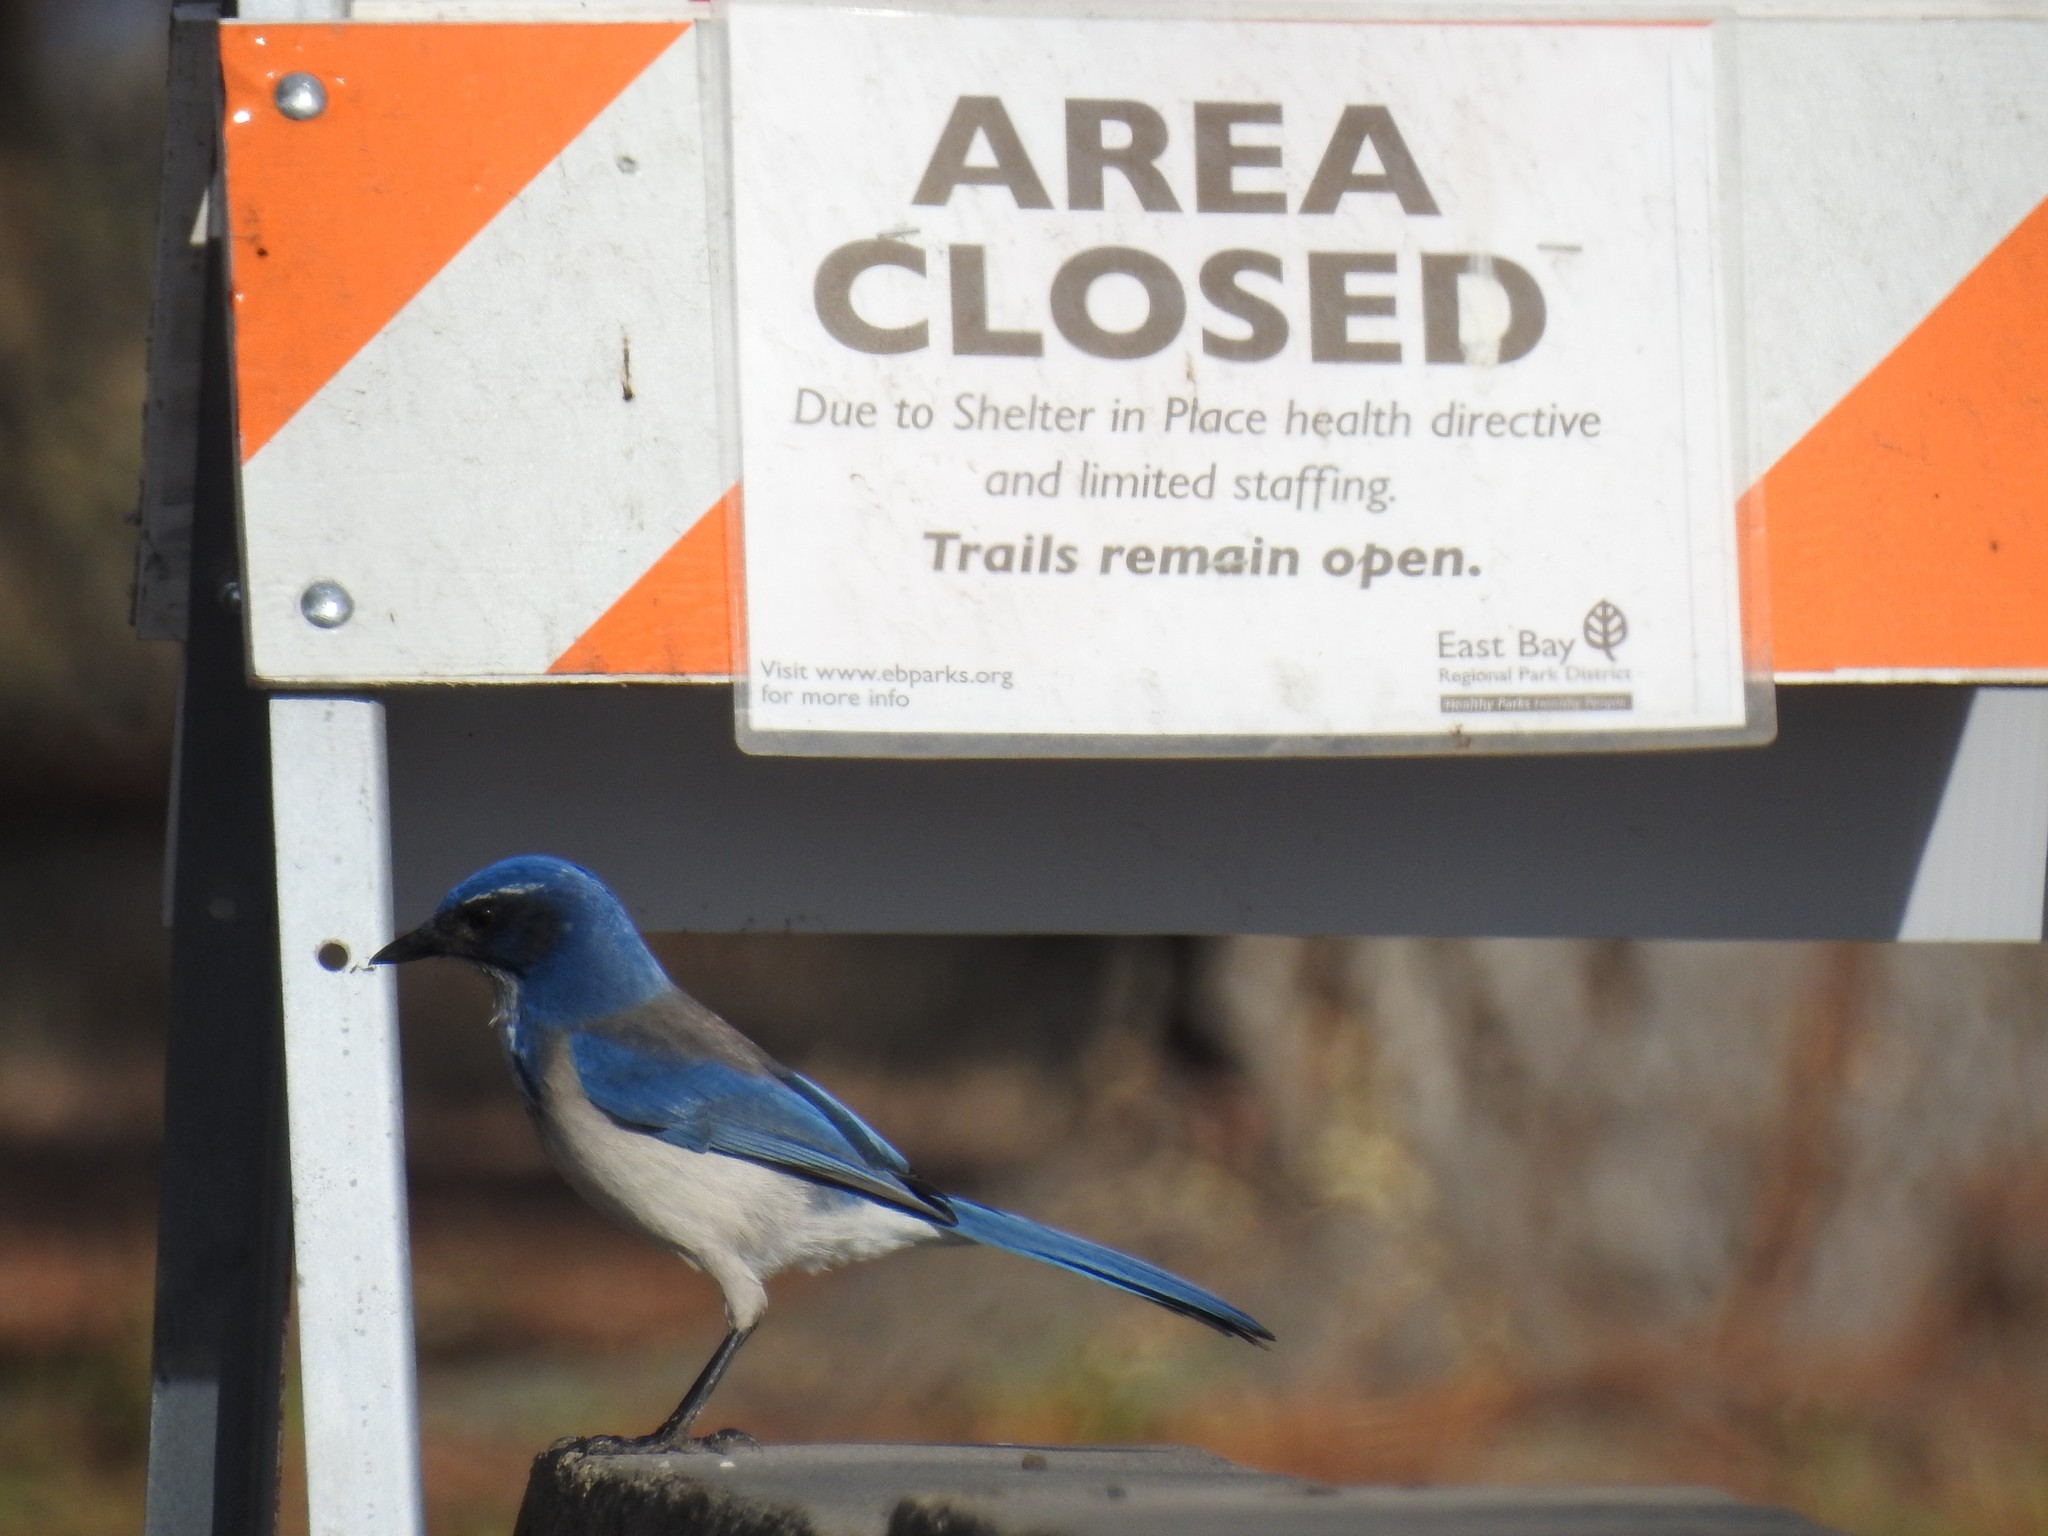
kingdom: Animalia
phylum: Chordata
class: Aves
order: Passeriformes
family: Corvidae
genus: Aphelocoma
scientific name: Aphelocoma californica
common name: California scrub-jay
